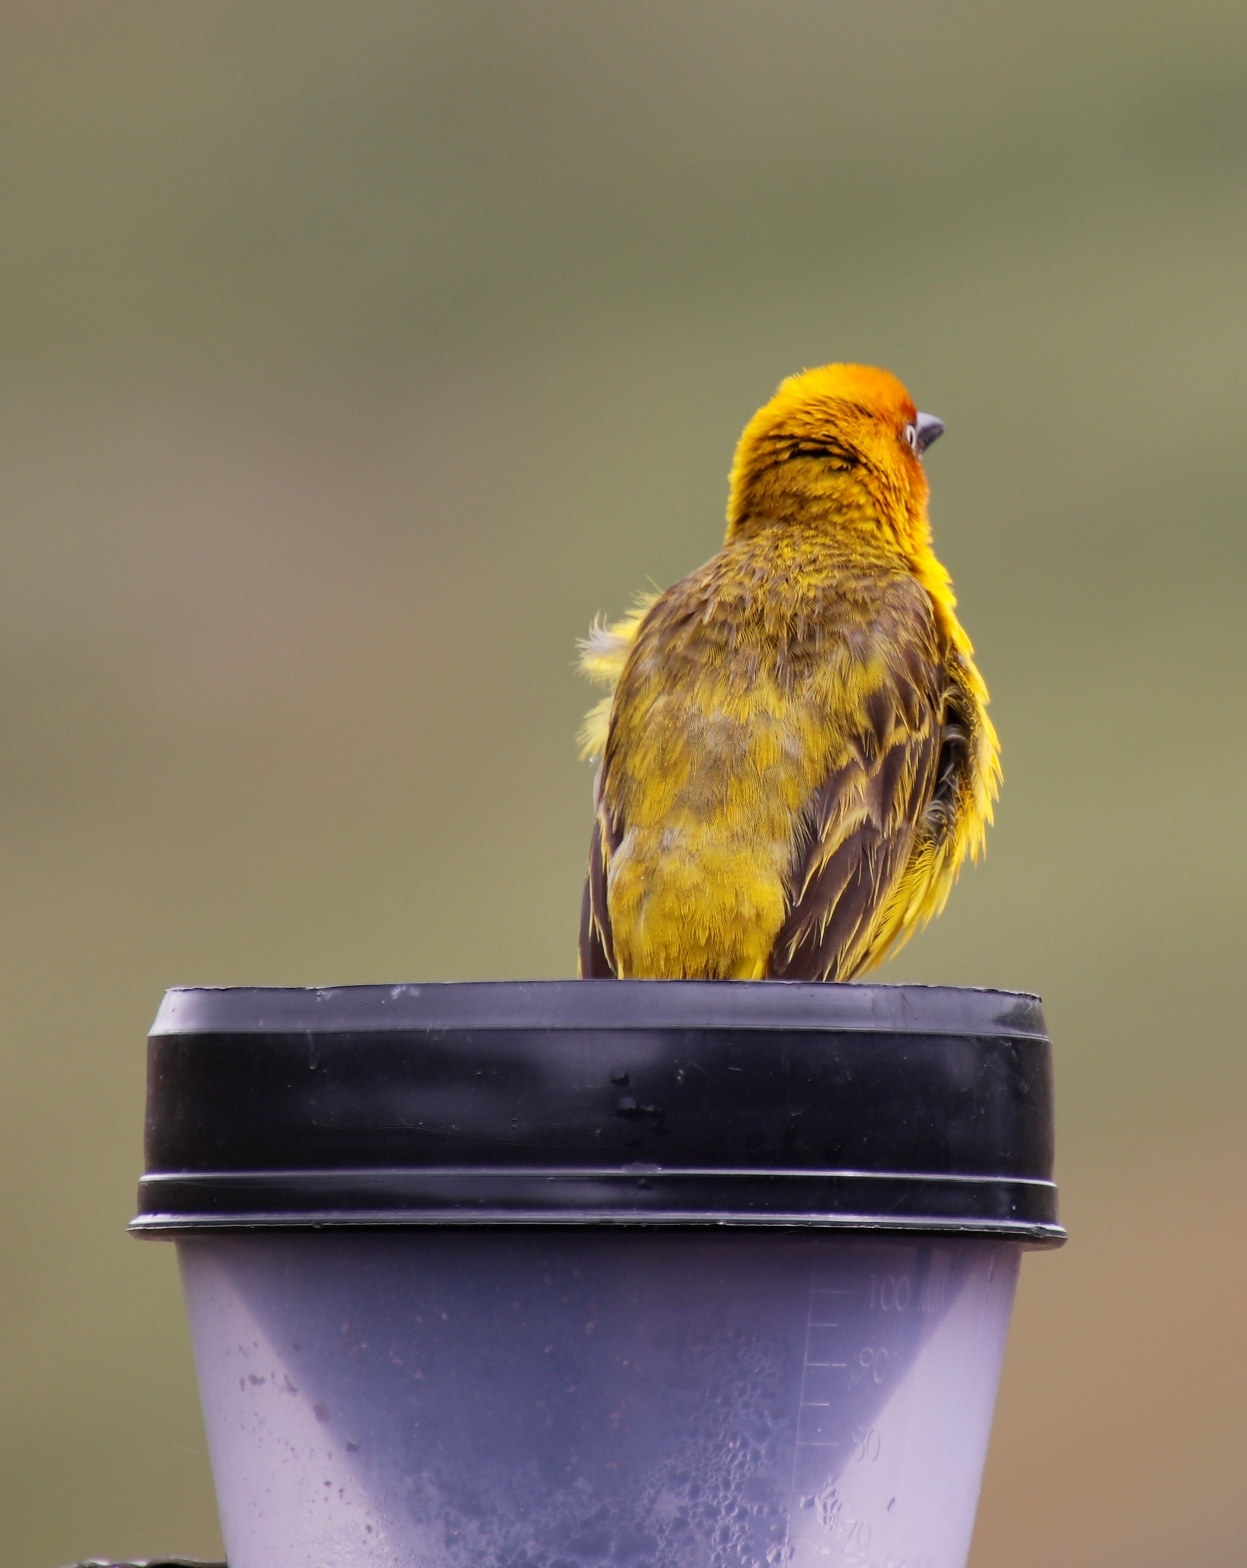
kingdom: Animalia
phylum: Chordata
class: Aves
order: Passeriformes
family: Ploceidae
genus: Ploceus
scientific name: Ploceus capensis
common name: Cape weaver
